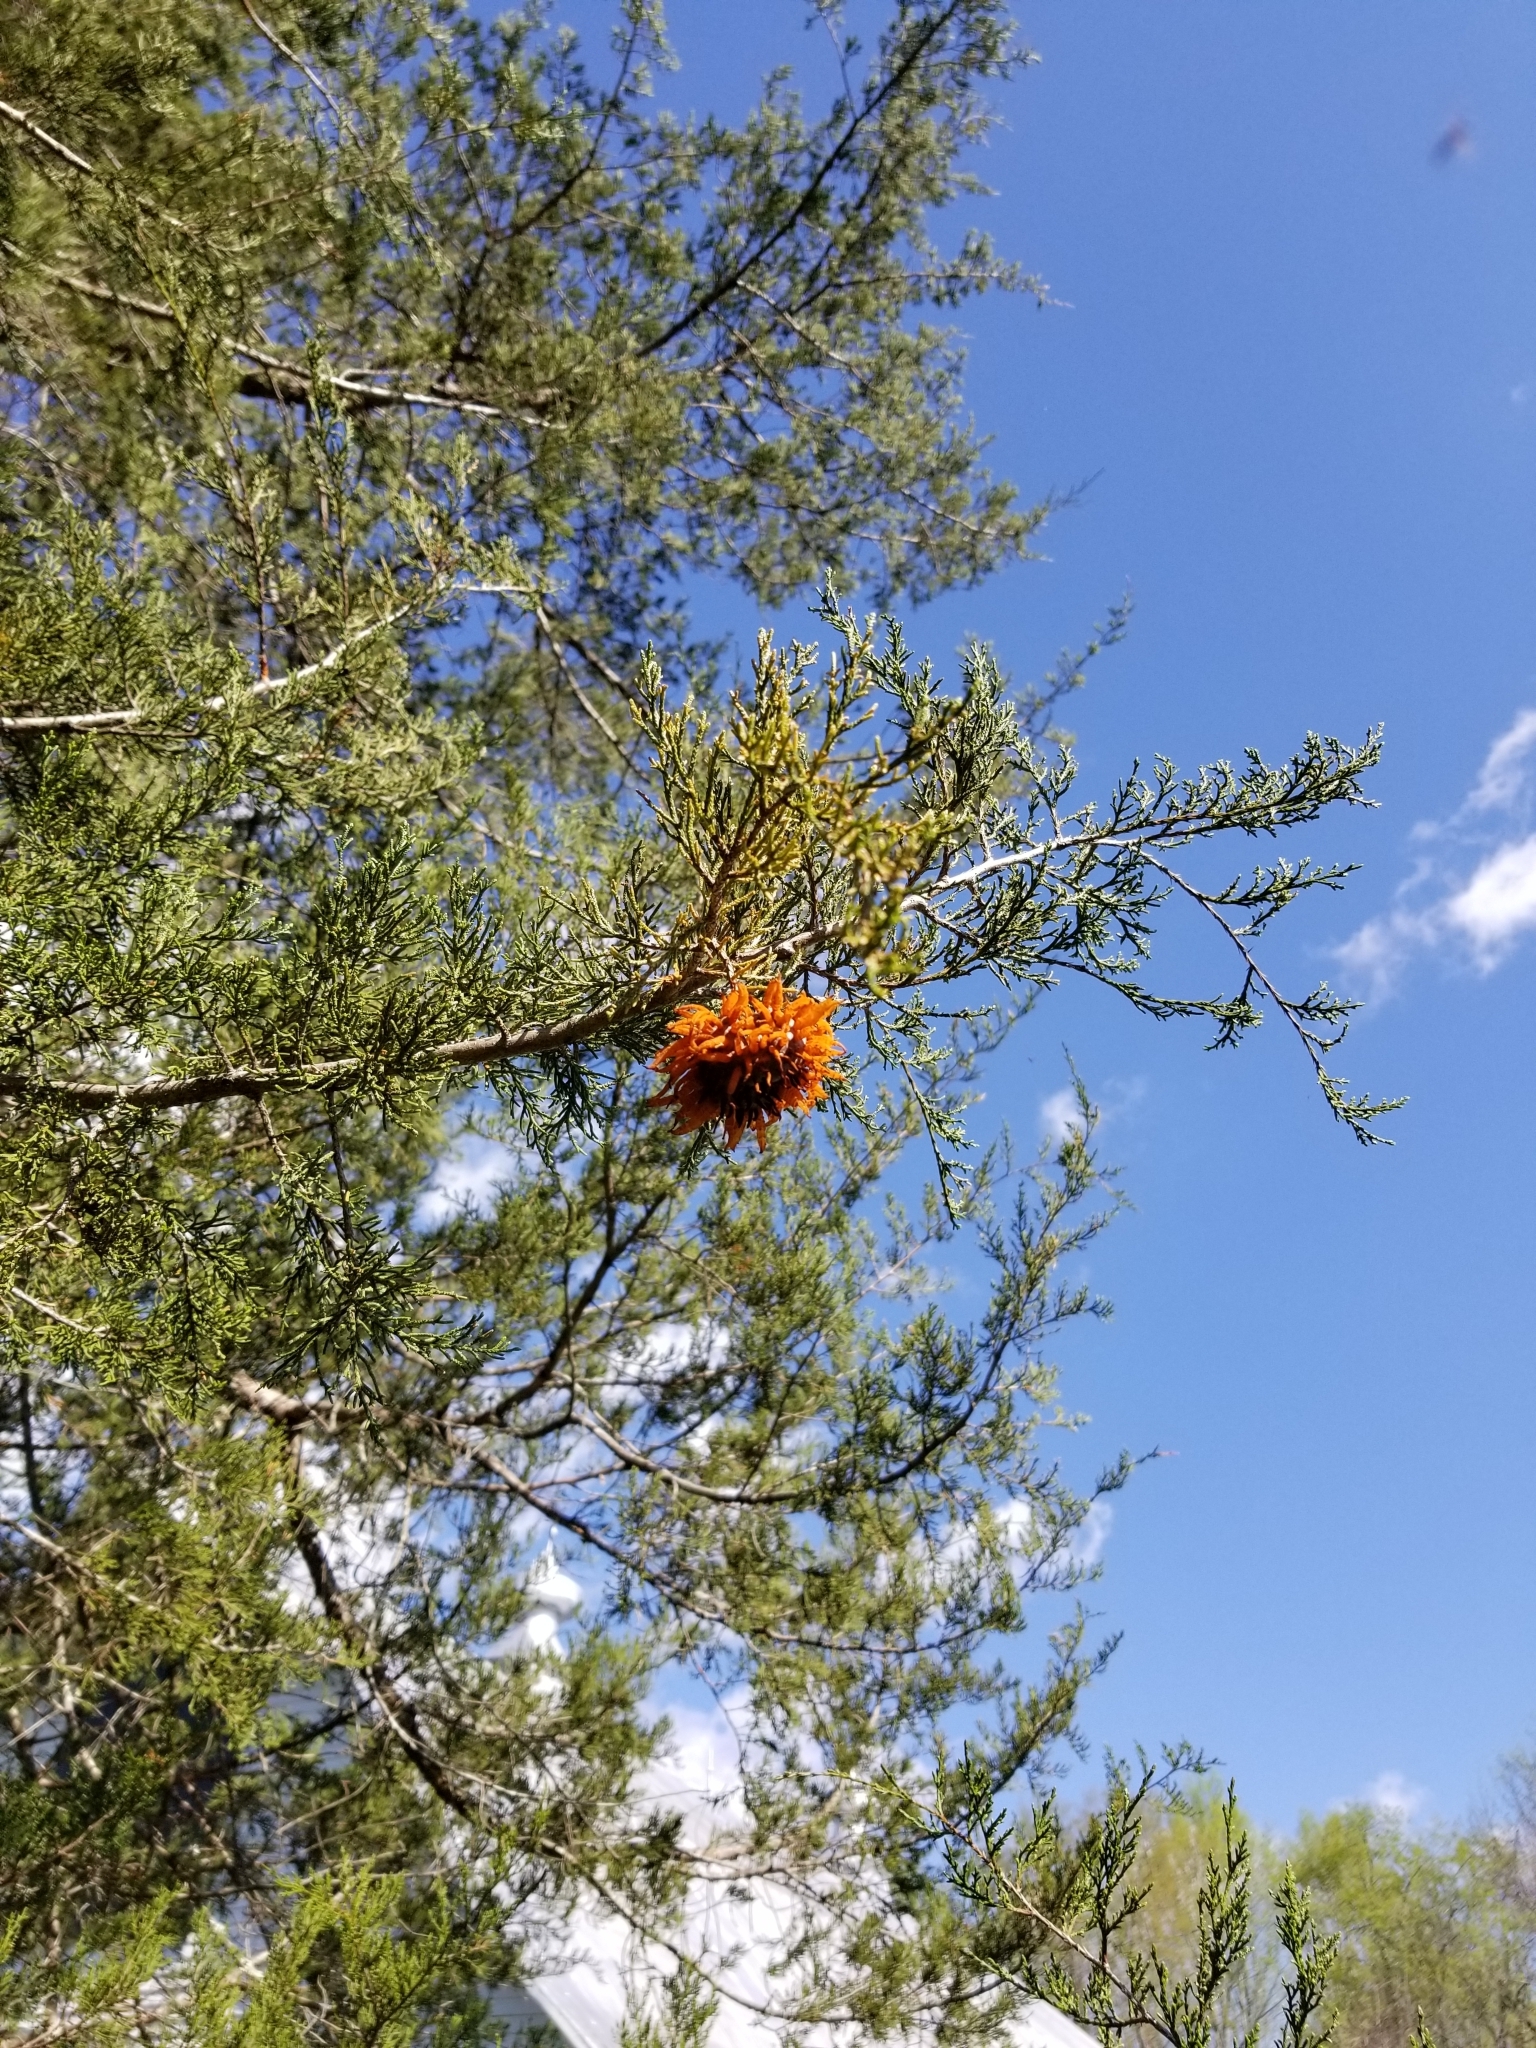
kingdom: Fungi
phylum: Basidiomycota
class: Pucciniomycetes
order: Pucciniales
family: Gymnosporangiaceae
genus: Gymnosporangium
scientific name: Gymnosporangium juniperi-virginianae
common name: Juniper-apple rust
